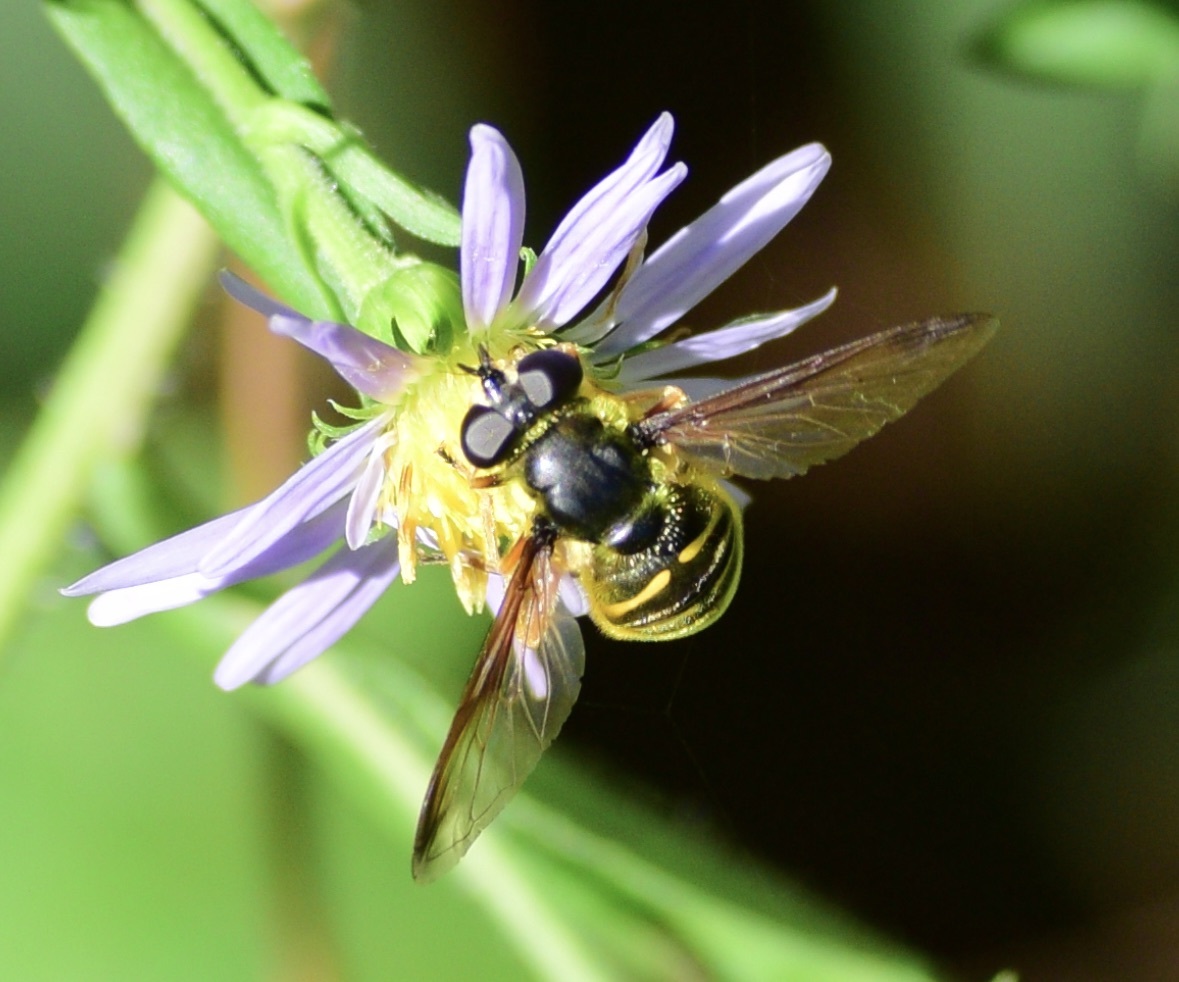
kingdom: Animalia
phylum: Arthropoda
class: Insecta
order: Diptera
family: Syrphidae
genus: Sericomyia
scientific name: Sericomyia chrysotoxoides
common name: Oblique-banded pond fly
